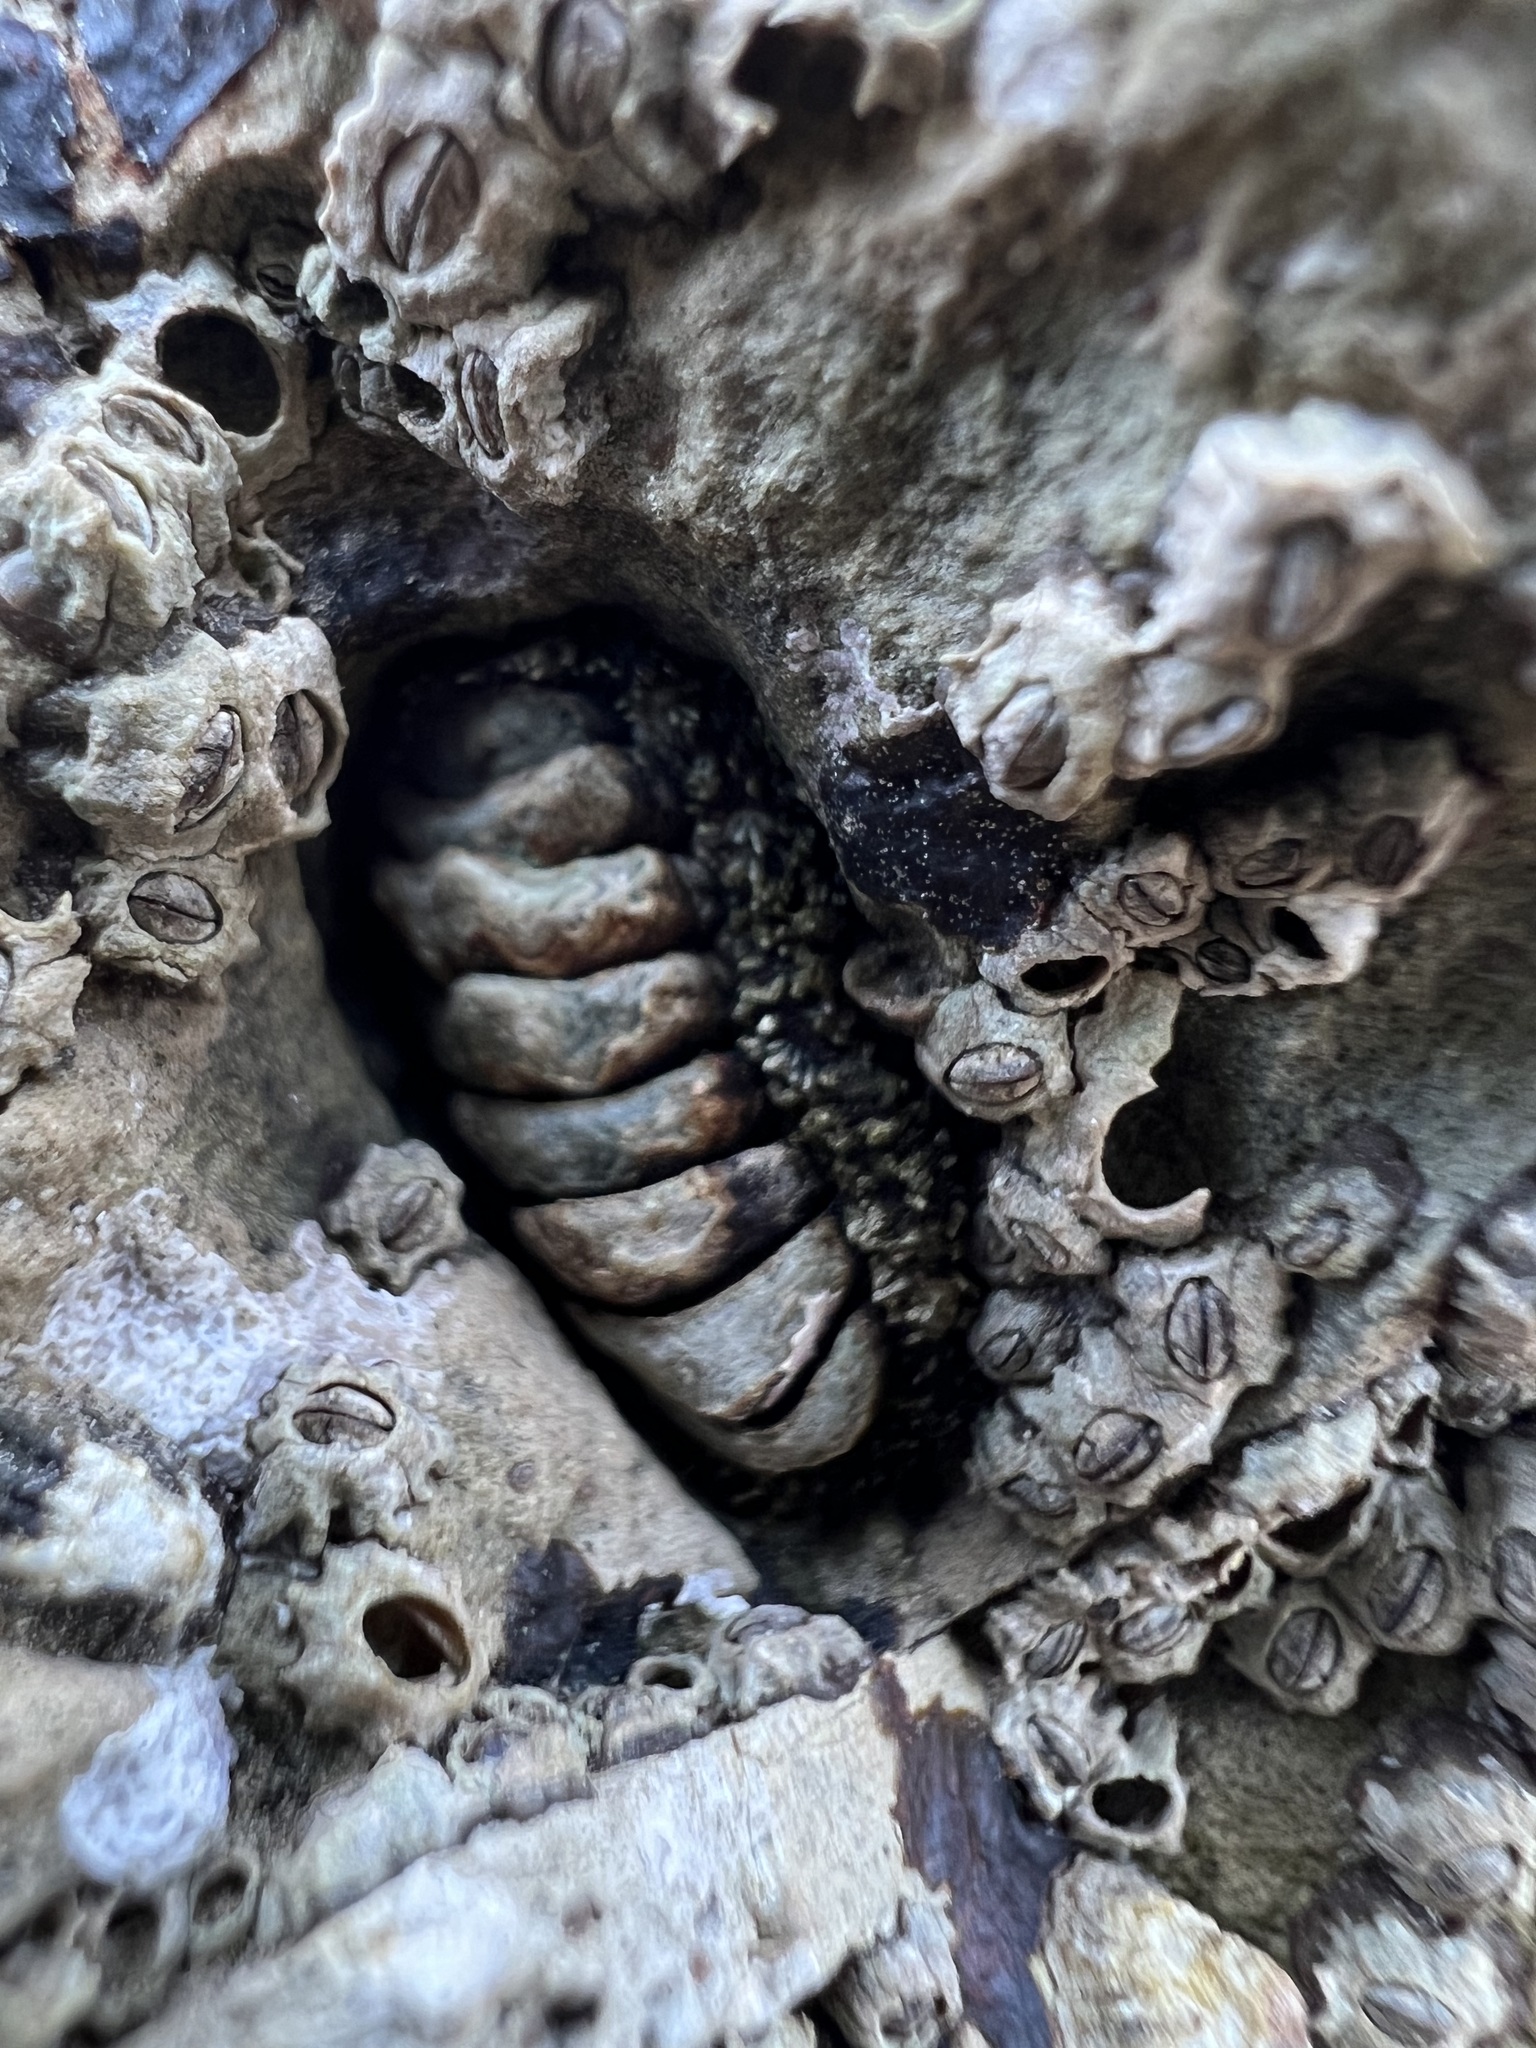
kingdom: Animalia
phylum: Mollusca
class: Polyplacophora
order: Chitonida
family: Tonicellidae
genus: Nuttallina
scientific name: Nuttallina californica
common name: California nuttall chiton
